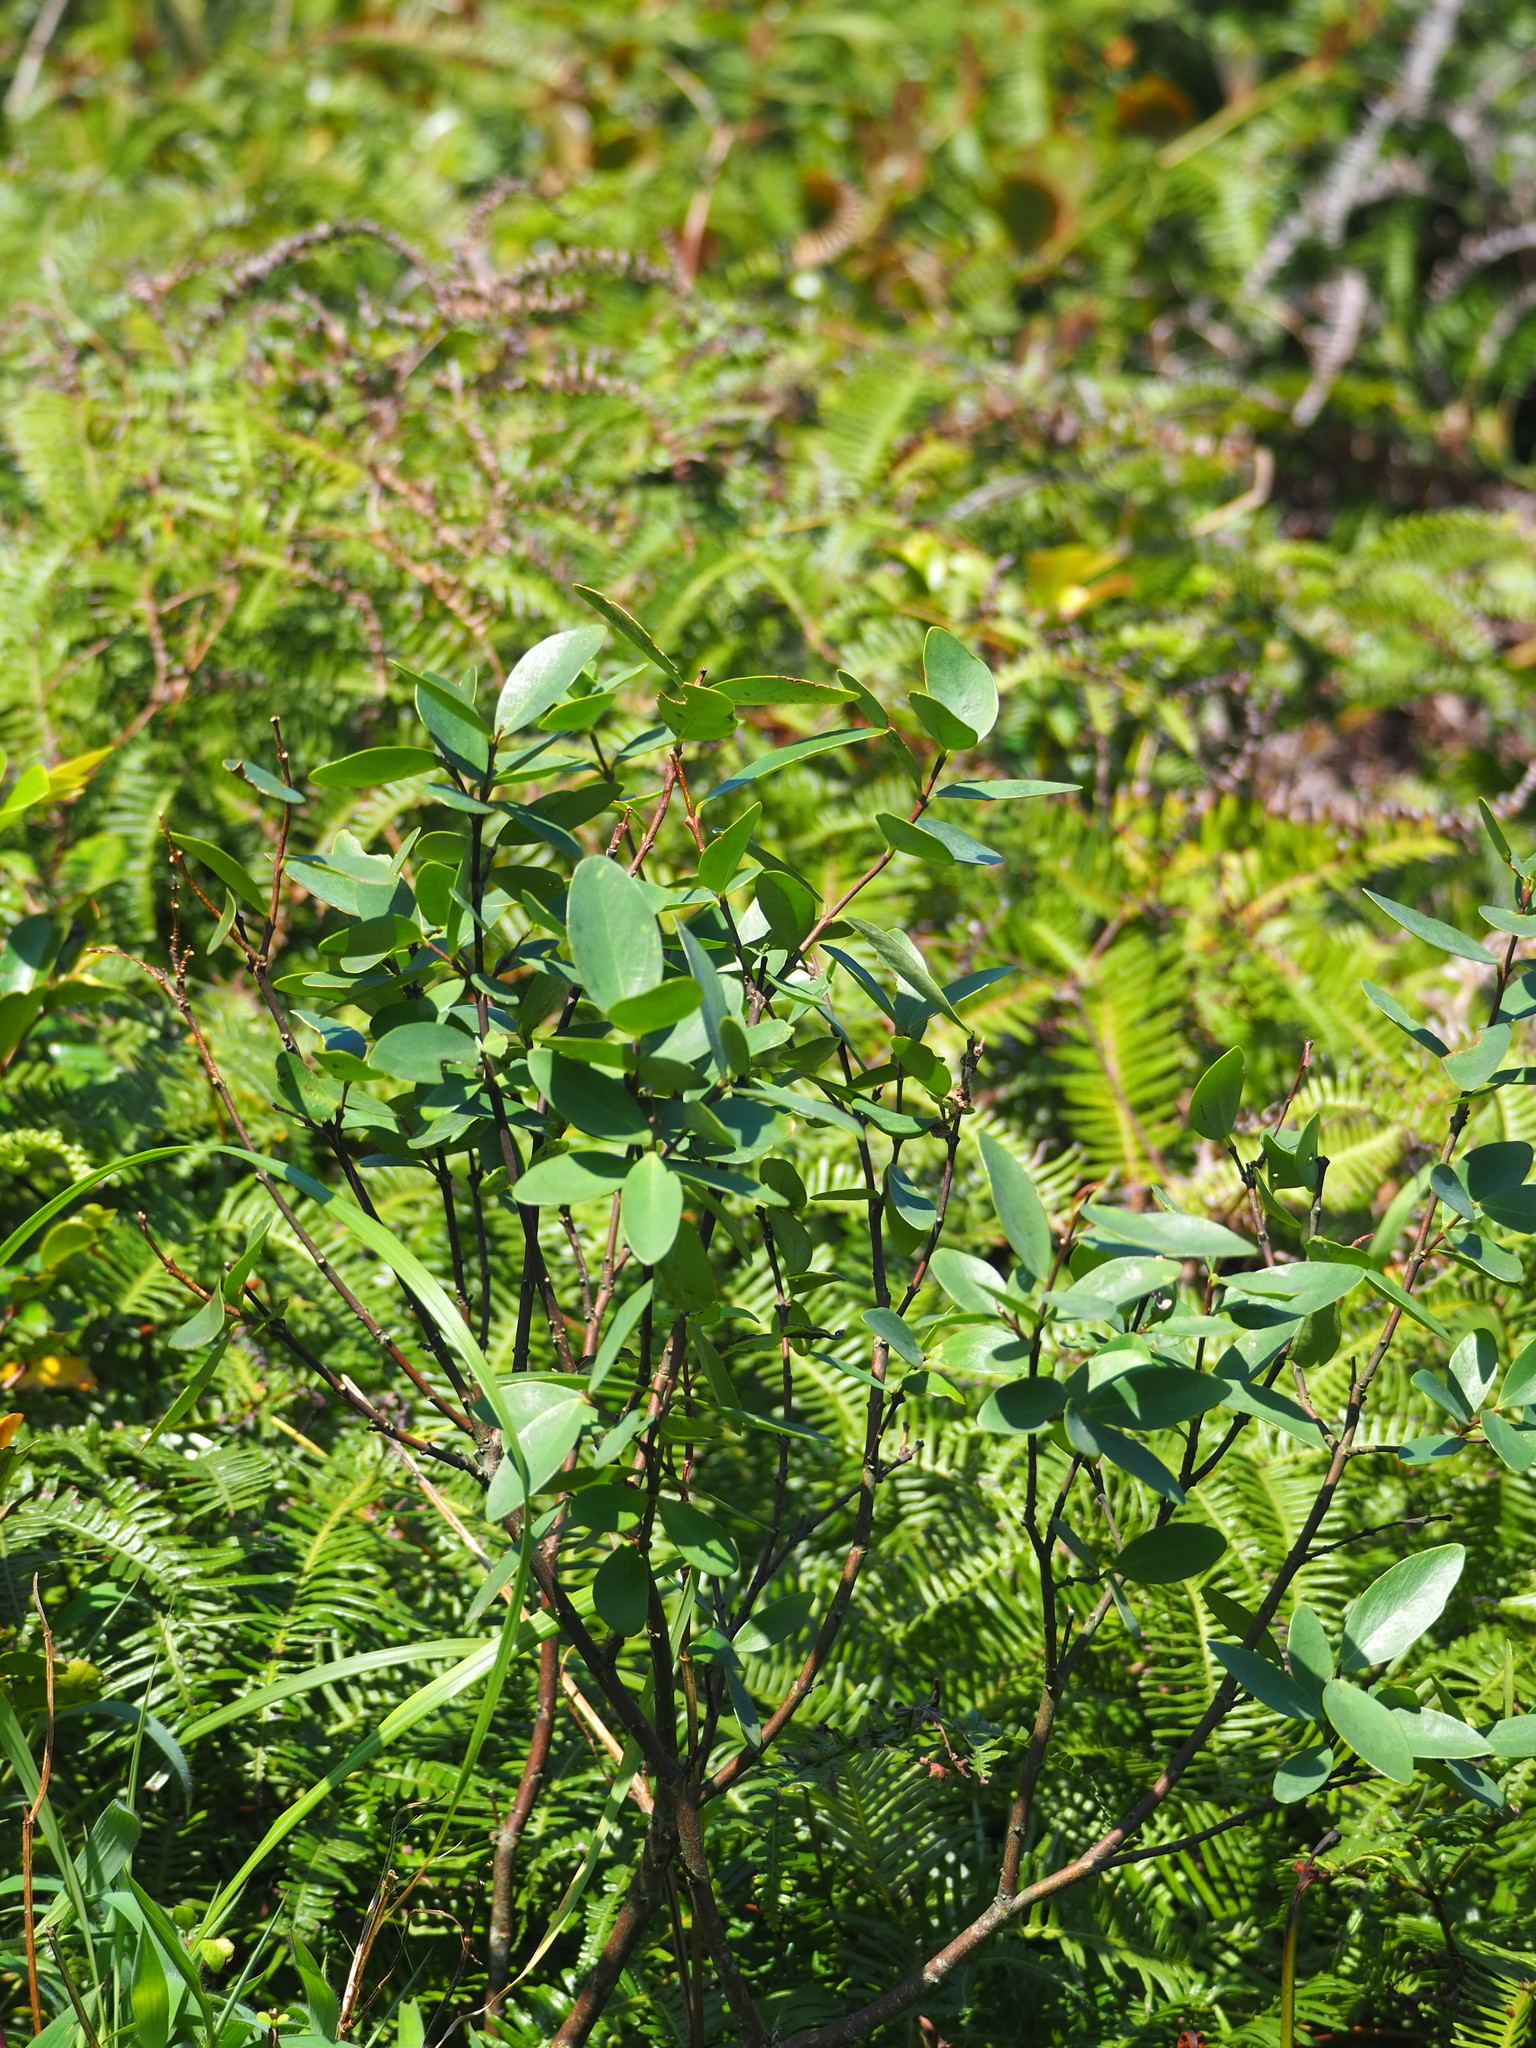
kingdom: Plantae
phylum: Tracheophyta
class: Magnoliopsida
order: Malvales
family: Thymelaeaceae
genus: Wikstroemia
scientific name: Wikstroemia indica
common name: Tiebush
